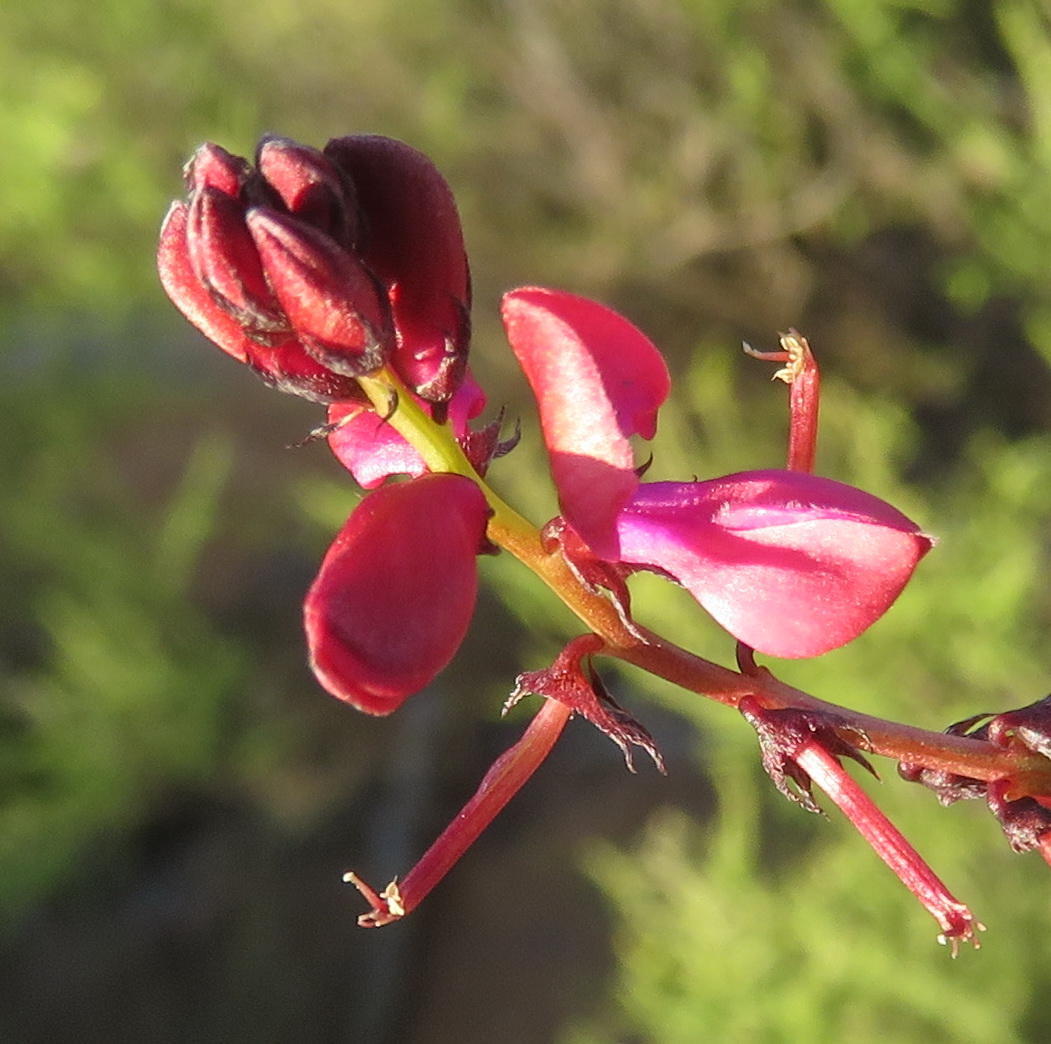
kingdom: Plantae
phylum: Tracheophyta
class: Magnoliopsida
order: Fabales
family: Fabaceae
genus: Indigofera
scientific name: Indigofera capillaris
